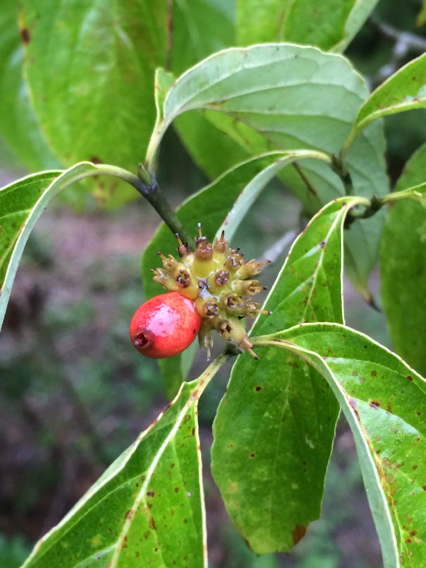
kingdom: Plantae
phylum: Tracheophyta
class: Magnoliopsida
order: Cornales
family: Cornaceae
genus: Cornus
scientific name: Cornus florida
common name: Flowering dogwood
